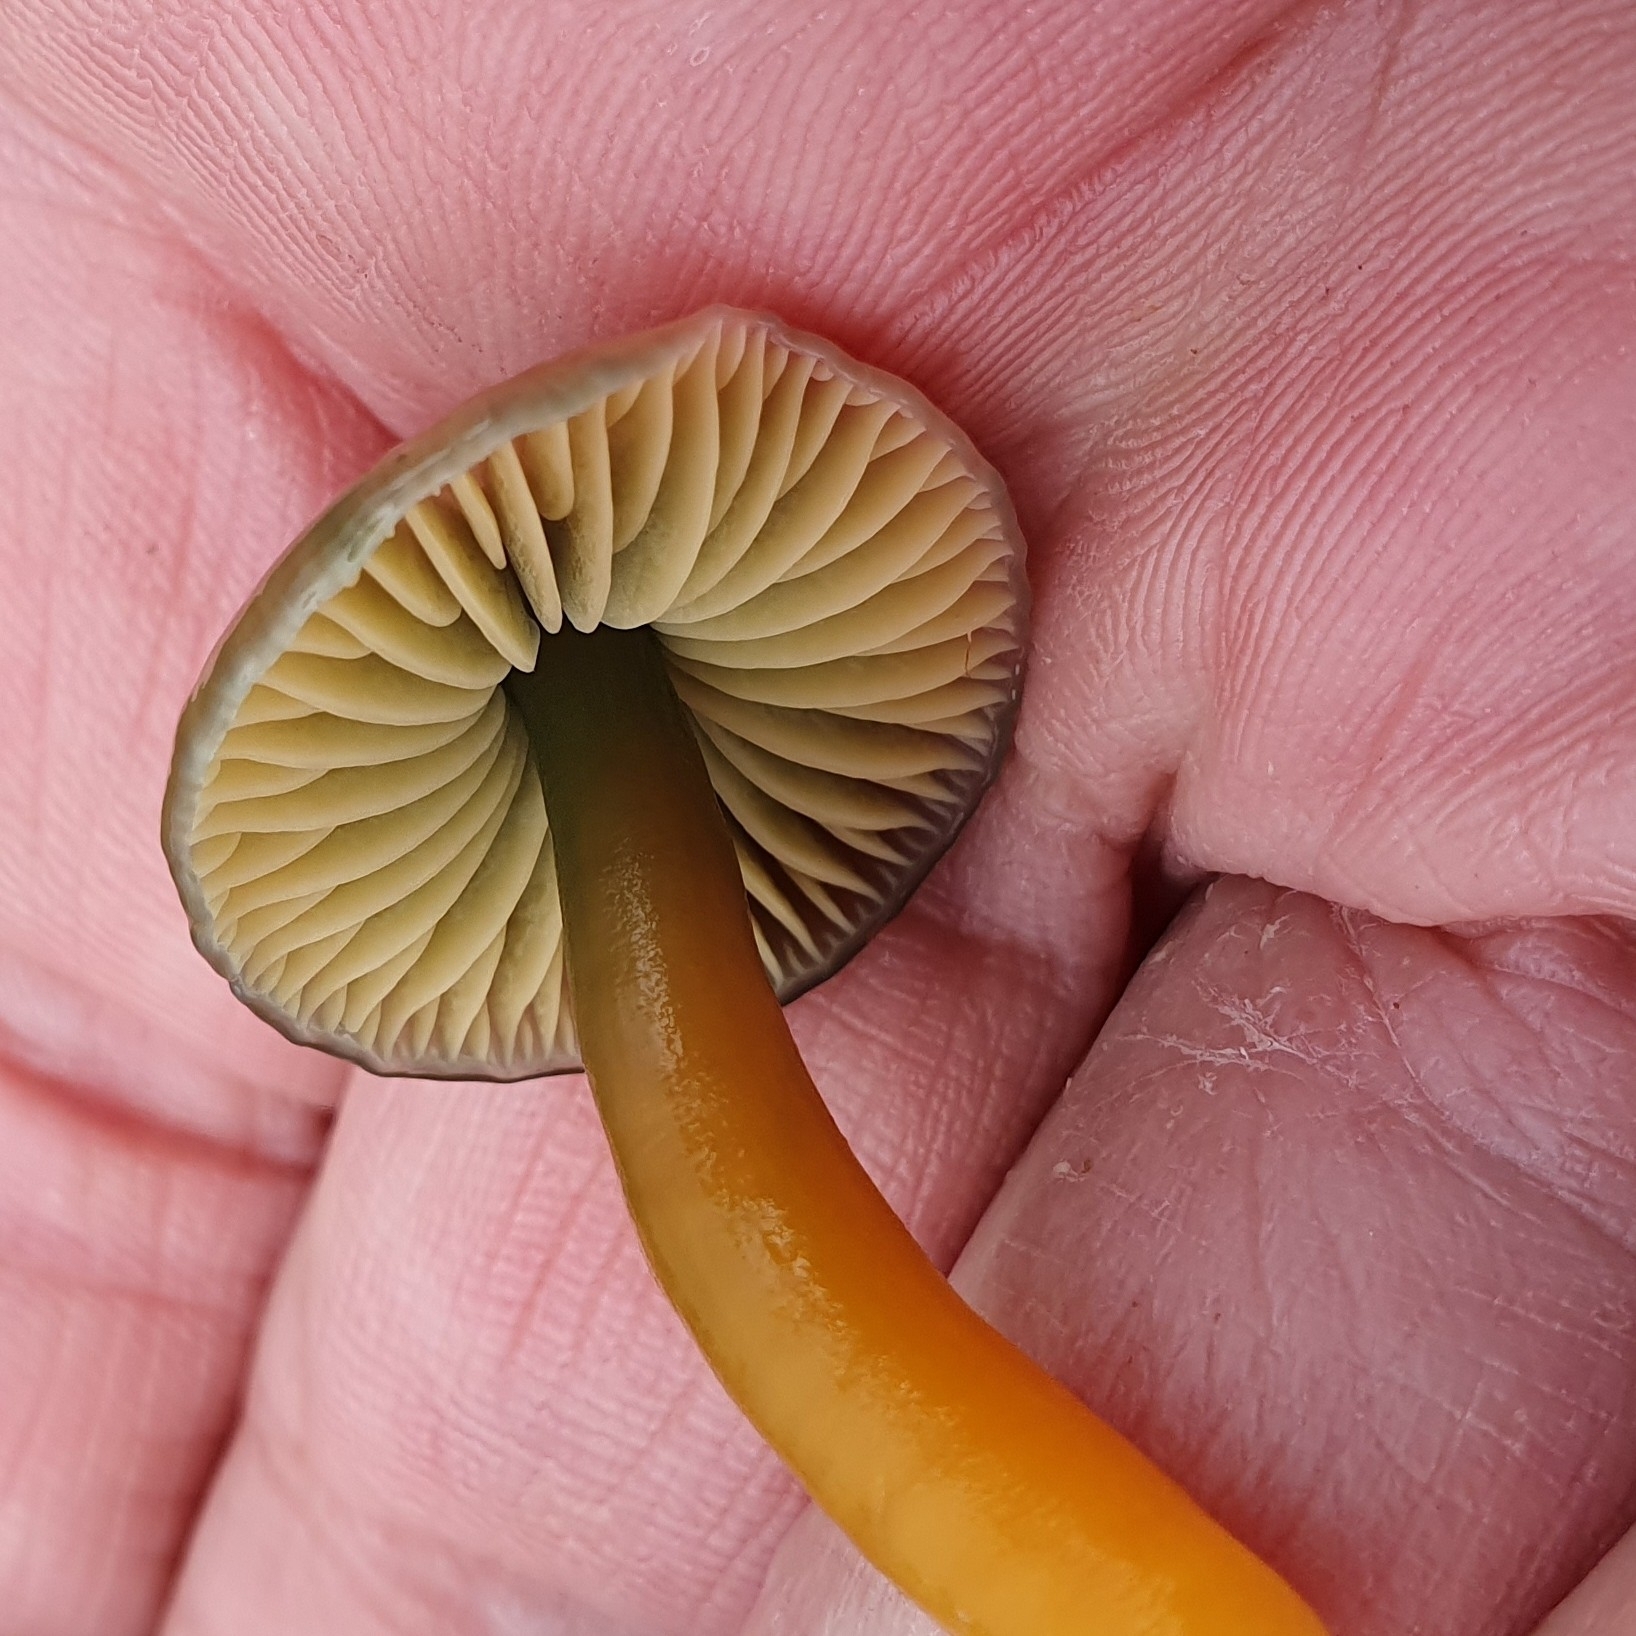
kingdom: Fungi
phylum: Basidiomycota
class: Agaricomycetes
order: Agaricales
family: Hygrophoraceae
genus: Gliophorus
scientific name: Gliophorus psittacinus
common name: Parrot wax-cap
